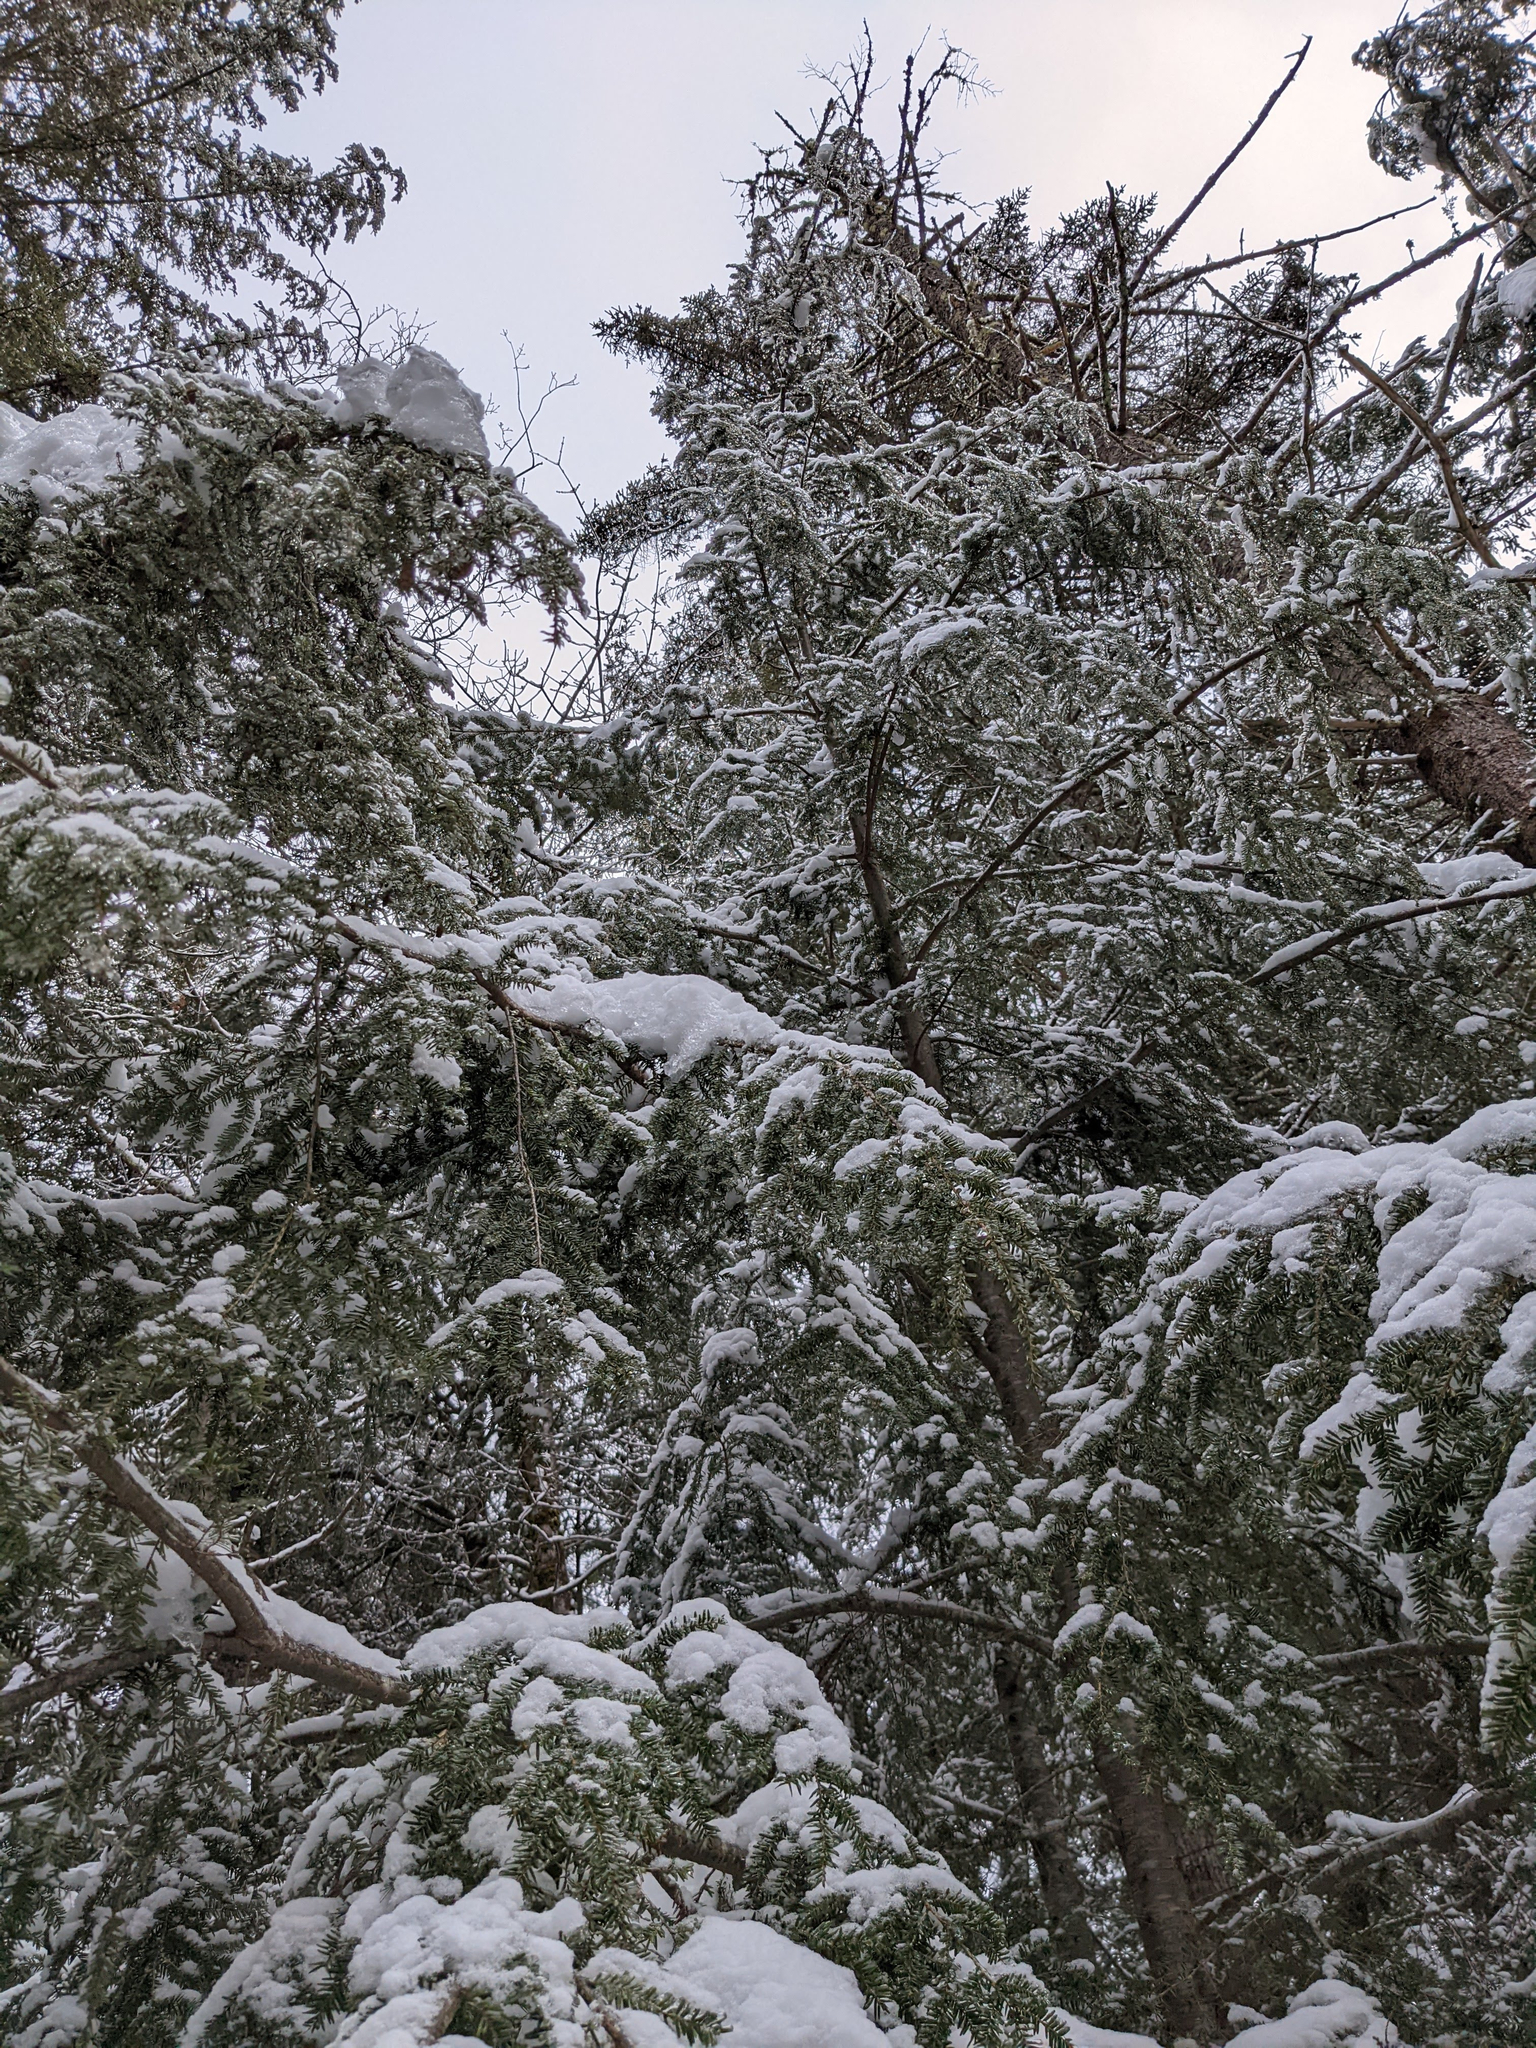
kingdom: Plantae
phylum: Tracheophyta
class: Pinopsida
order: Pinales
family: Pinaceae
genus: Tsuga
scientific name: Tsuga canadensis
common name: Eastern hemlock
